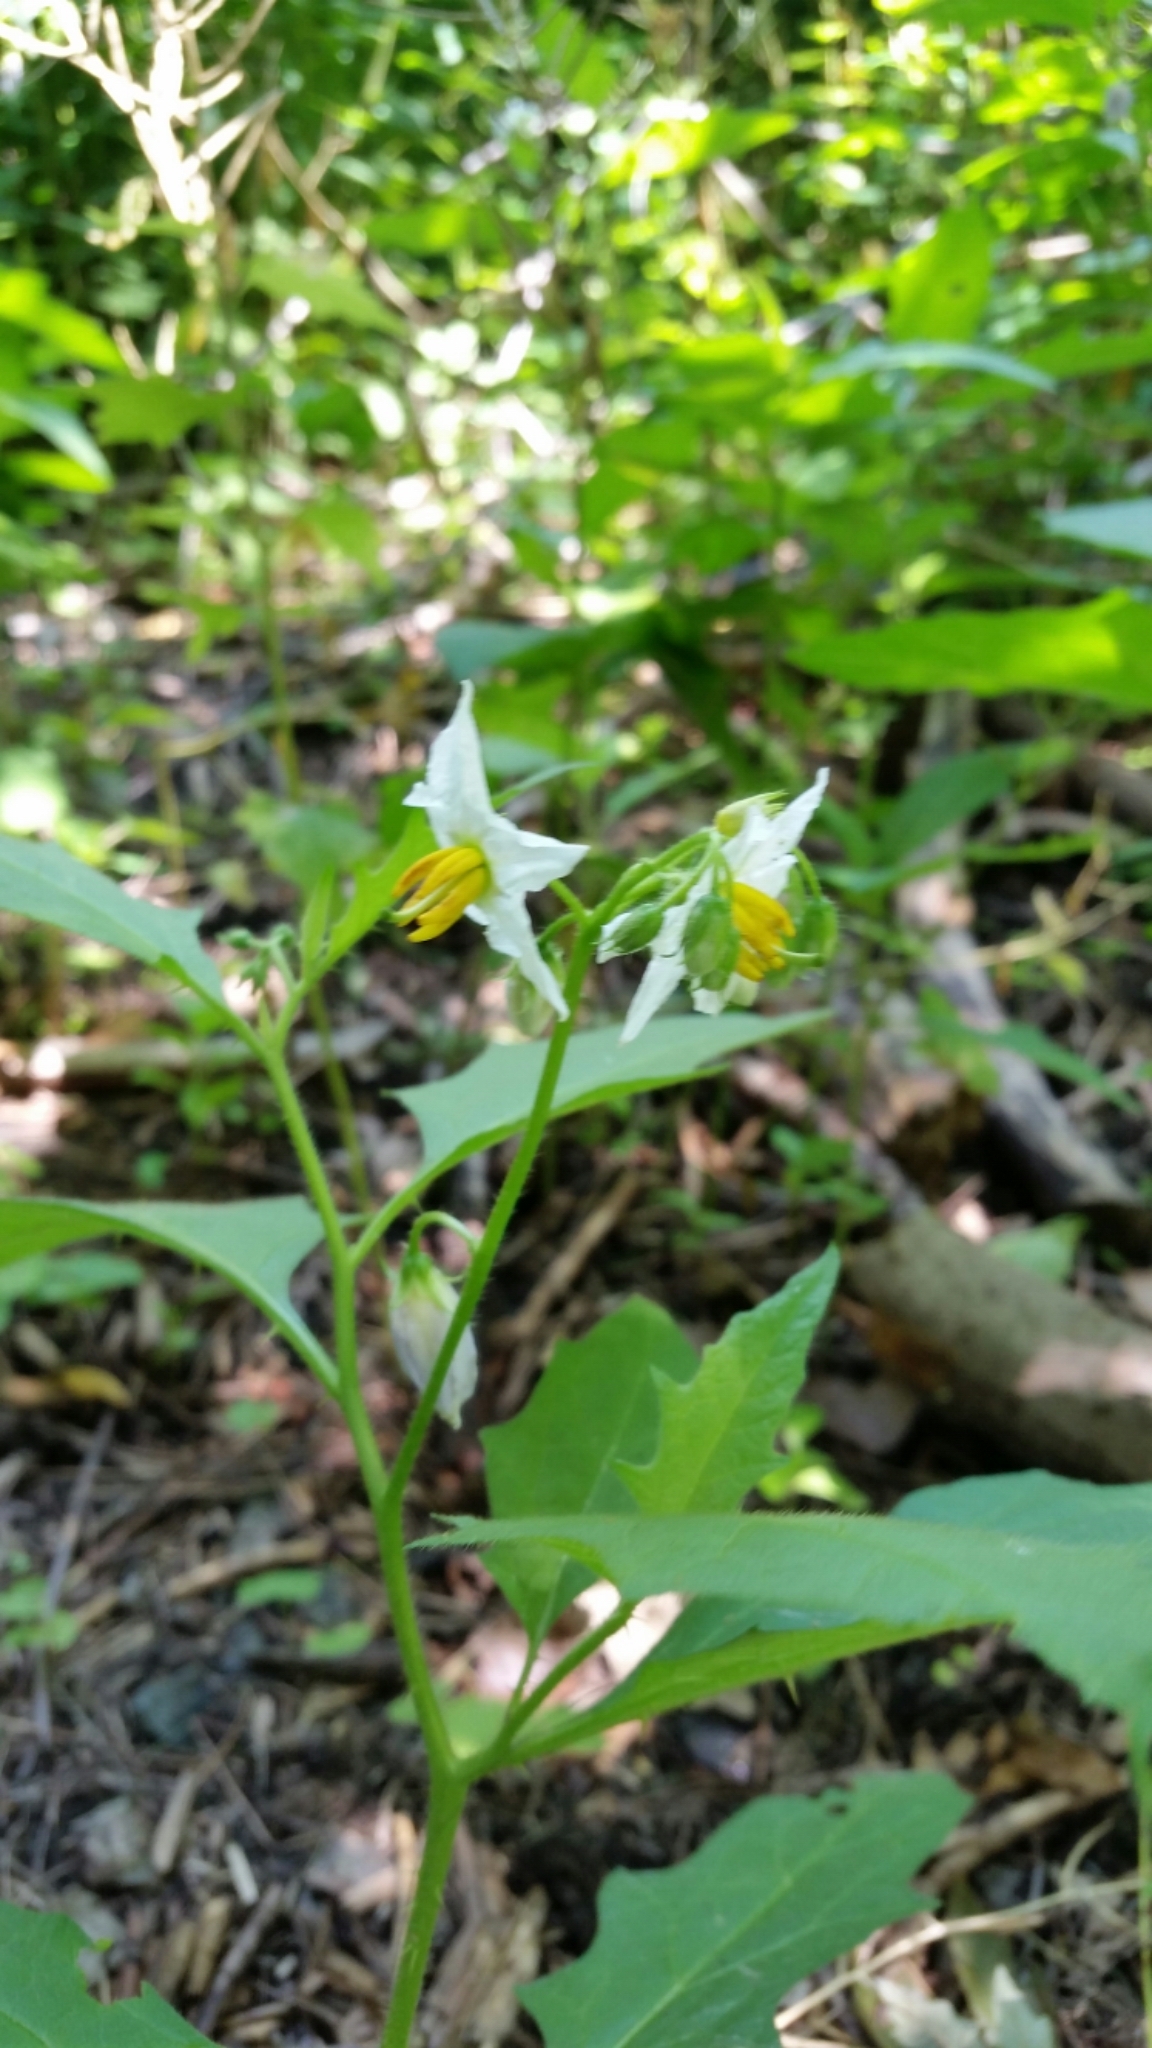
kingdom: Plantae
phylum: Tracheophyta
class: Magnoliopsida
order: Solanales
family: Solanaceae
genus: Solanum
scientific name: Solanum carolinense
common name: Horse-nettle
